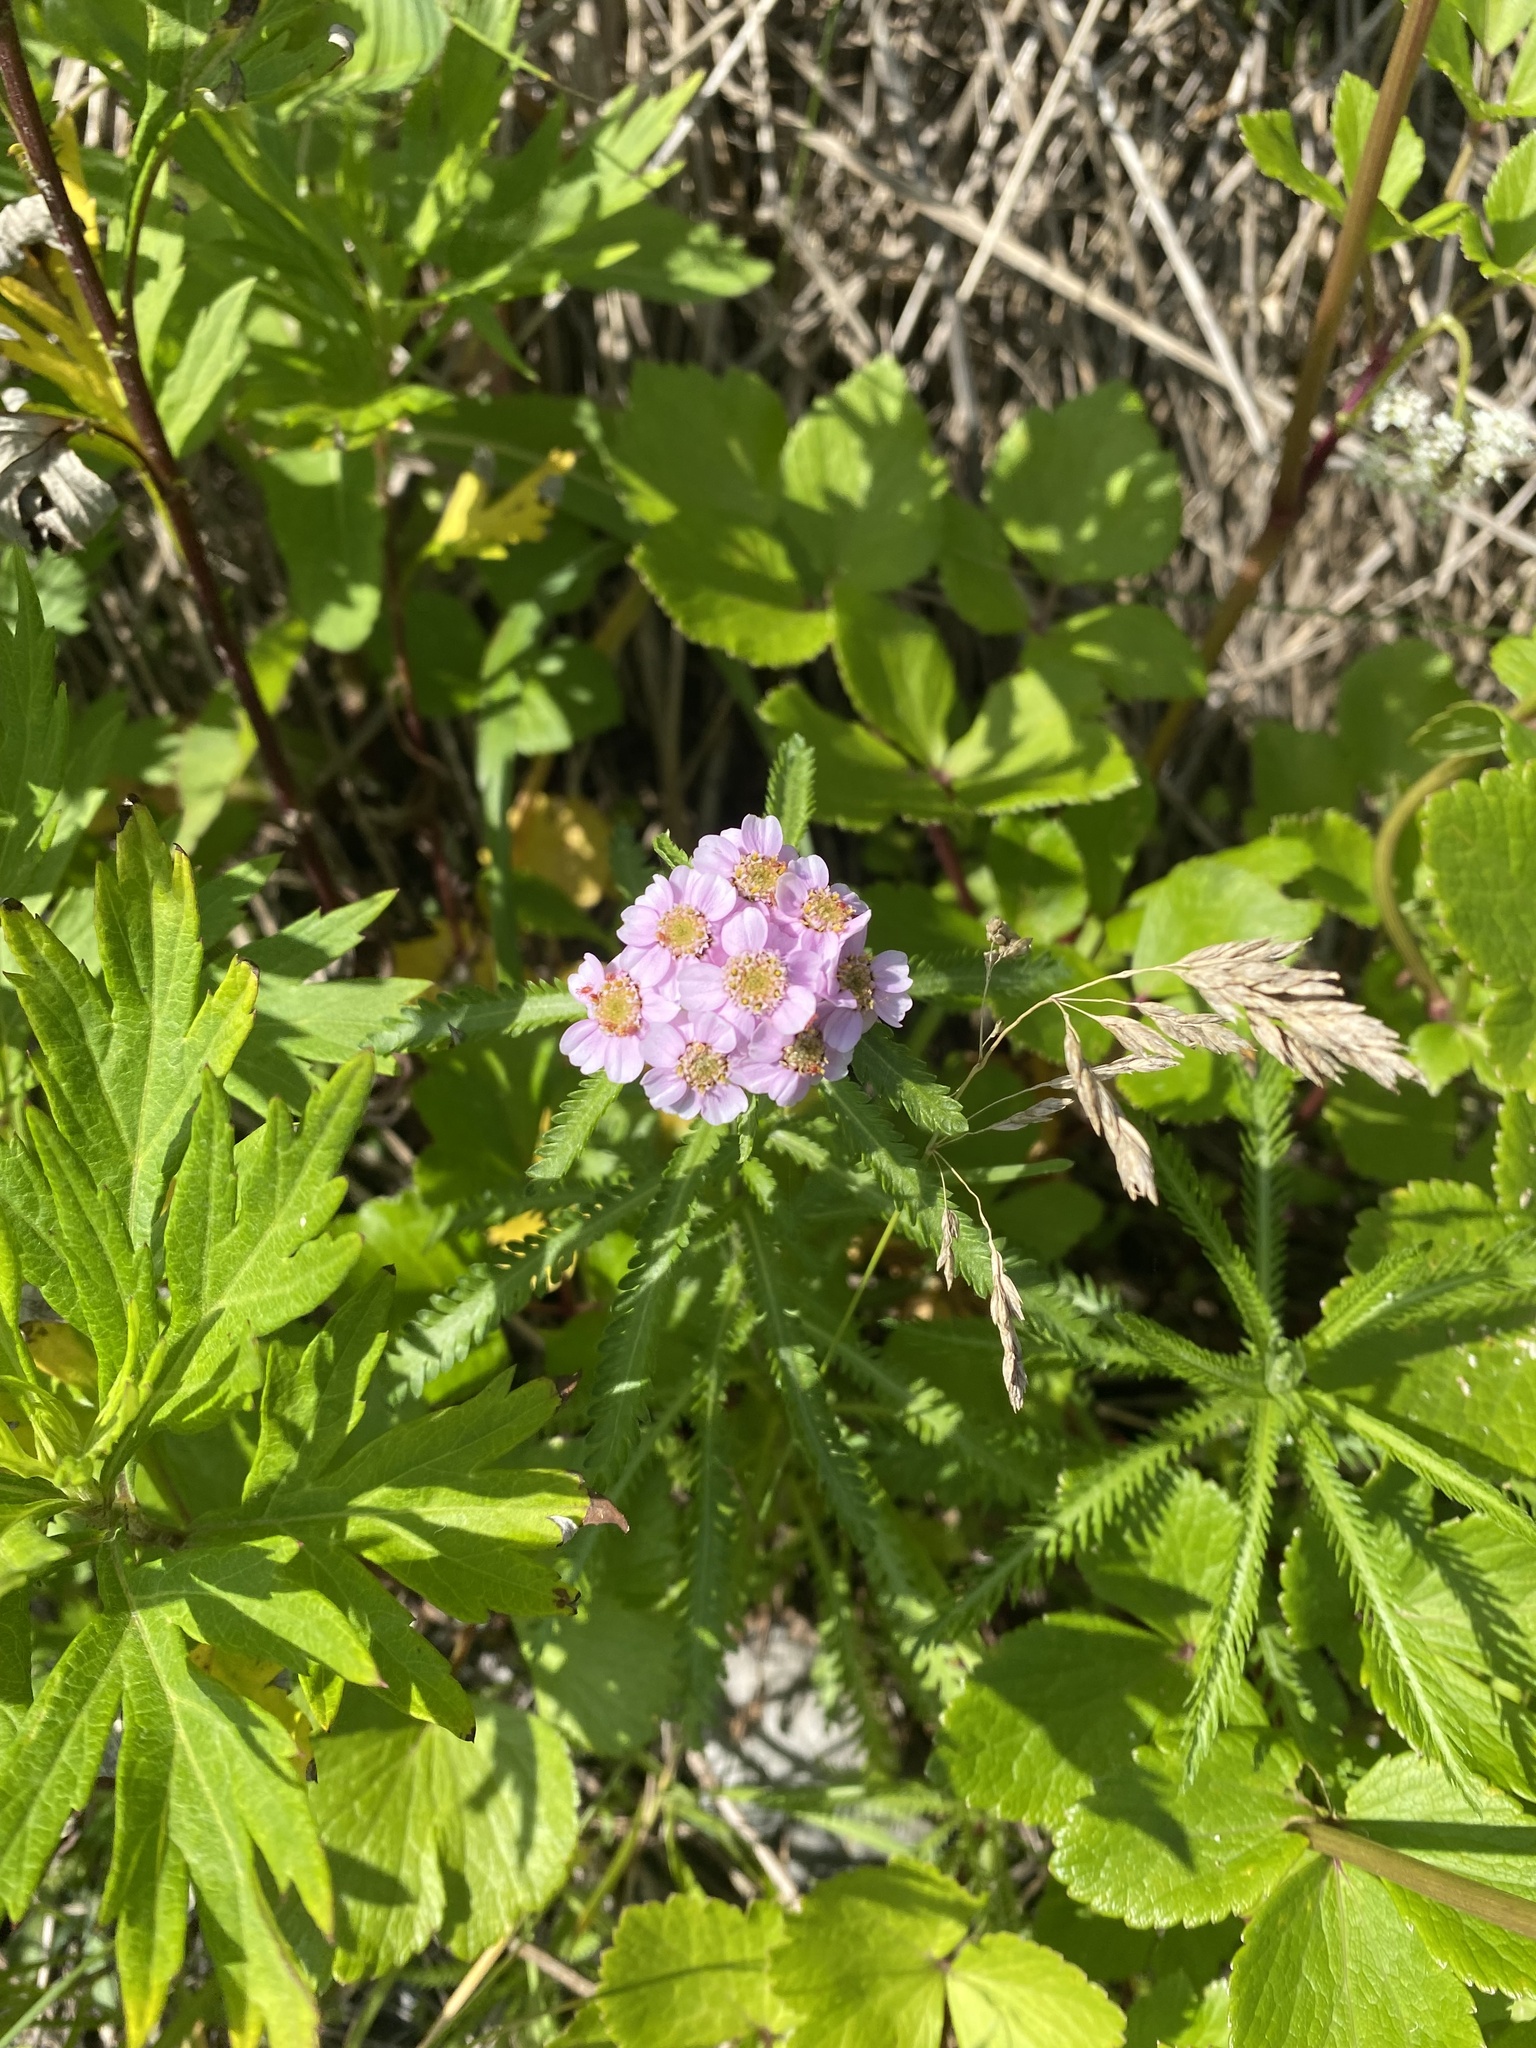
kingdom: Plantae
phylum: Tracheophyta
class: Magnoliopsida
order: Asterales
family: Asteraceae
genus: Achillea
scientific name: Achillea alpina
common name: Siberian yarrow
